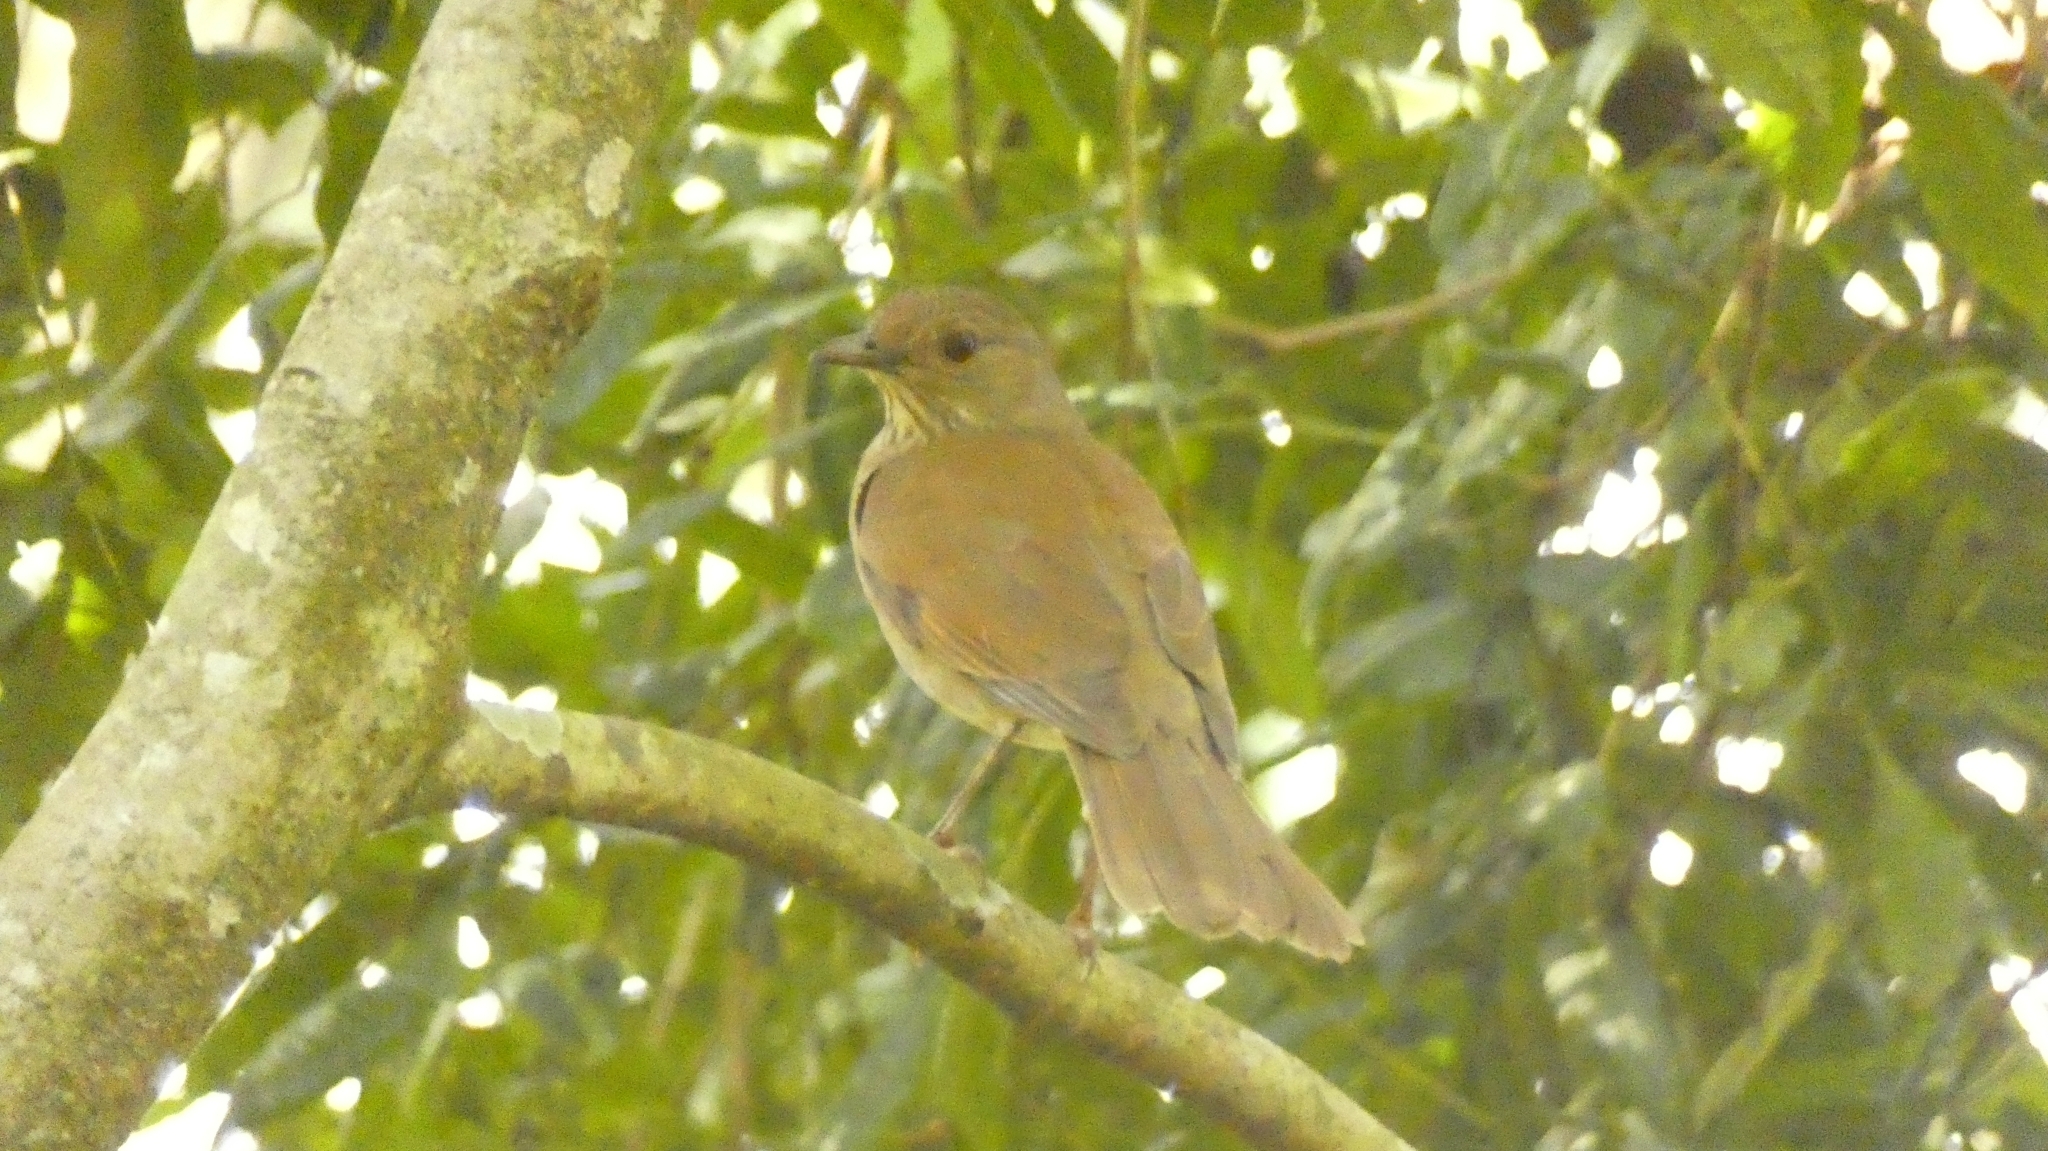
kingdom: Animalia
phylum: Chordata
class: Aves
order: Passeriformes
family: Turdidae
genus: Turdus
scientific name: Turdus leucomelas
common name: Pale-breasted thrush
